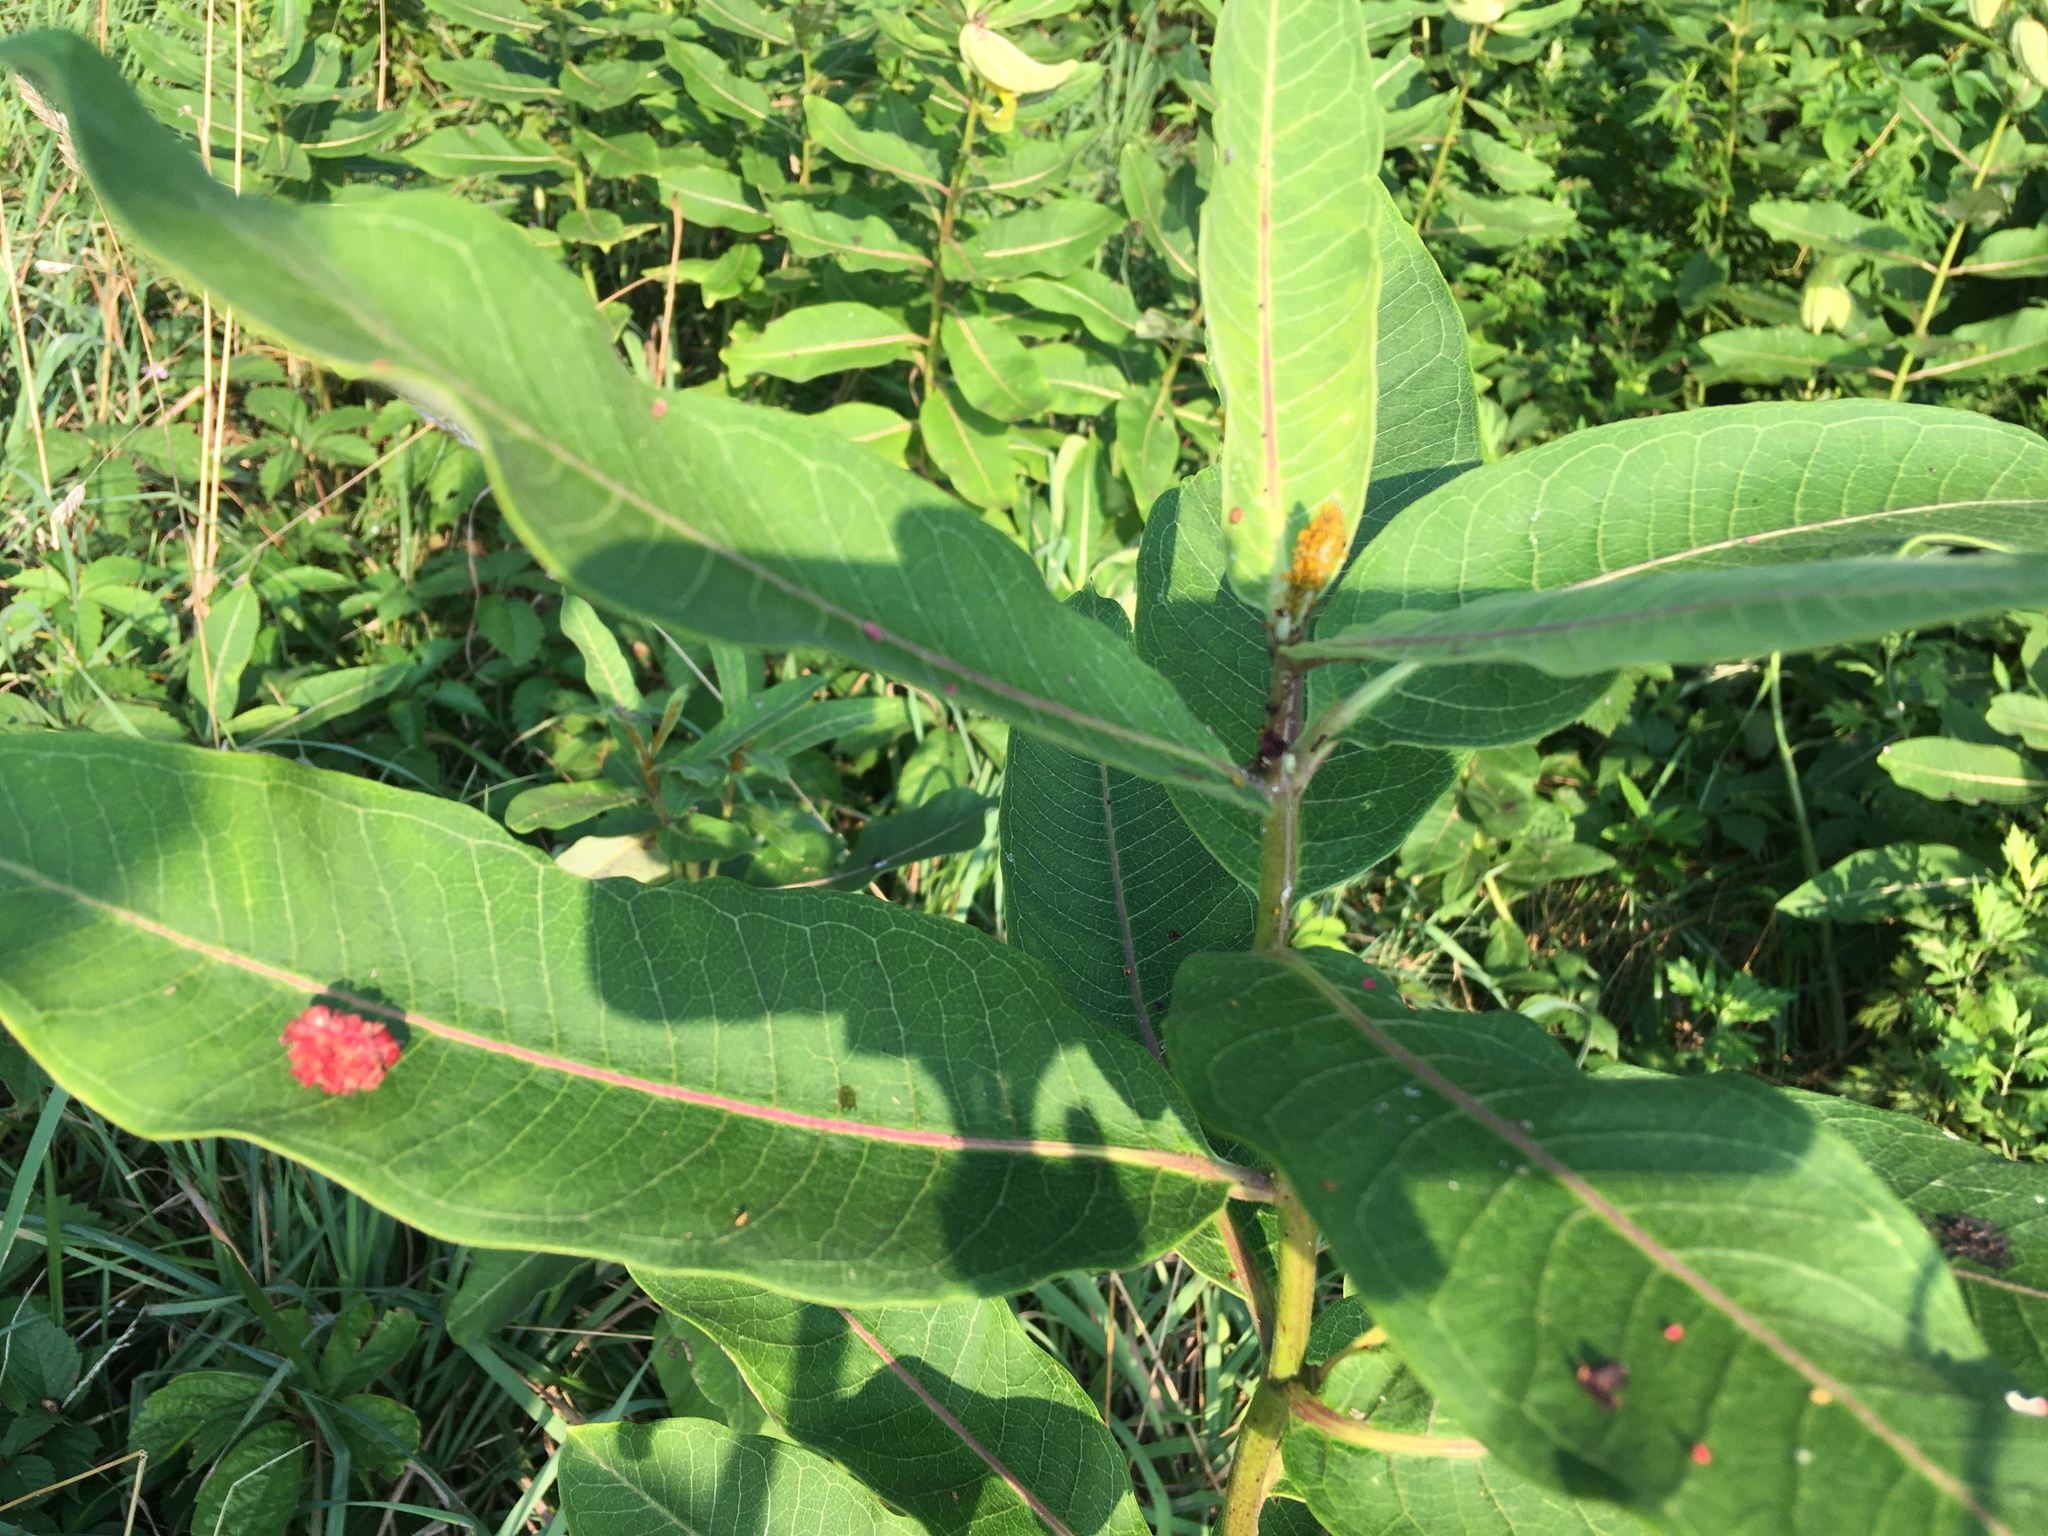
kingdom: Plantae
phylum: Tracheophyta
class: Magnoliopsida
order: Gentianales
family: Apocynaceae
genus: Asclepias
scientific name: Asclepias syriaca
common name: Common milkweed
